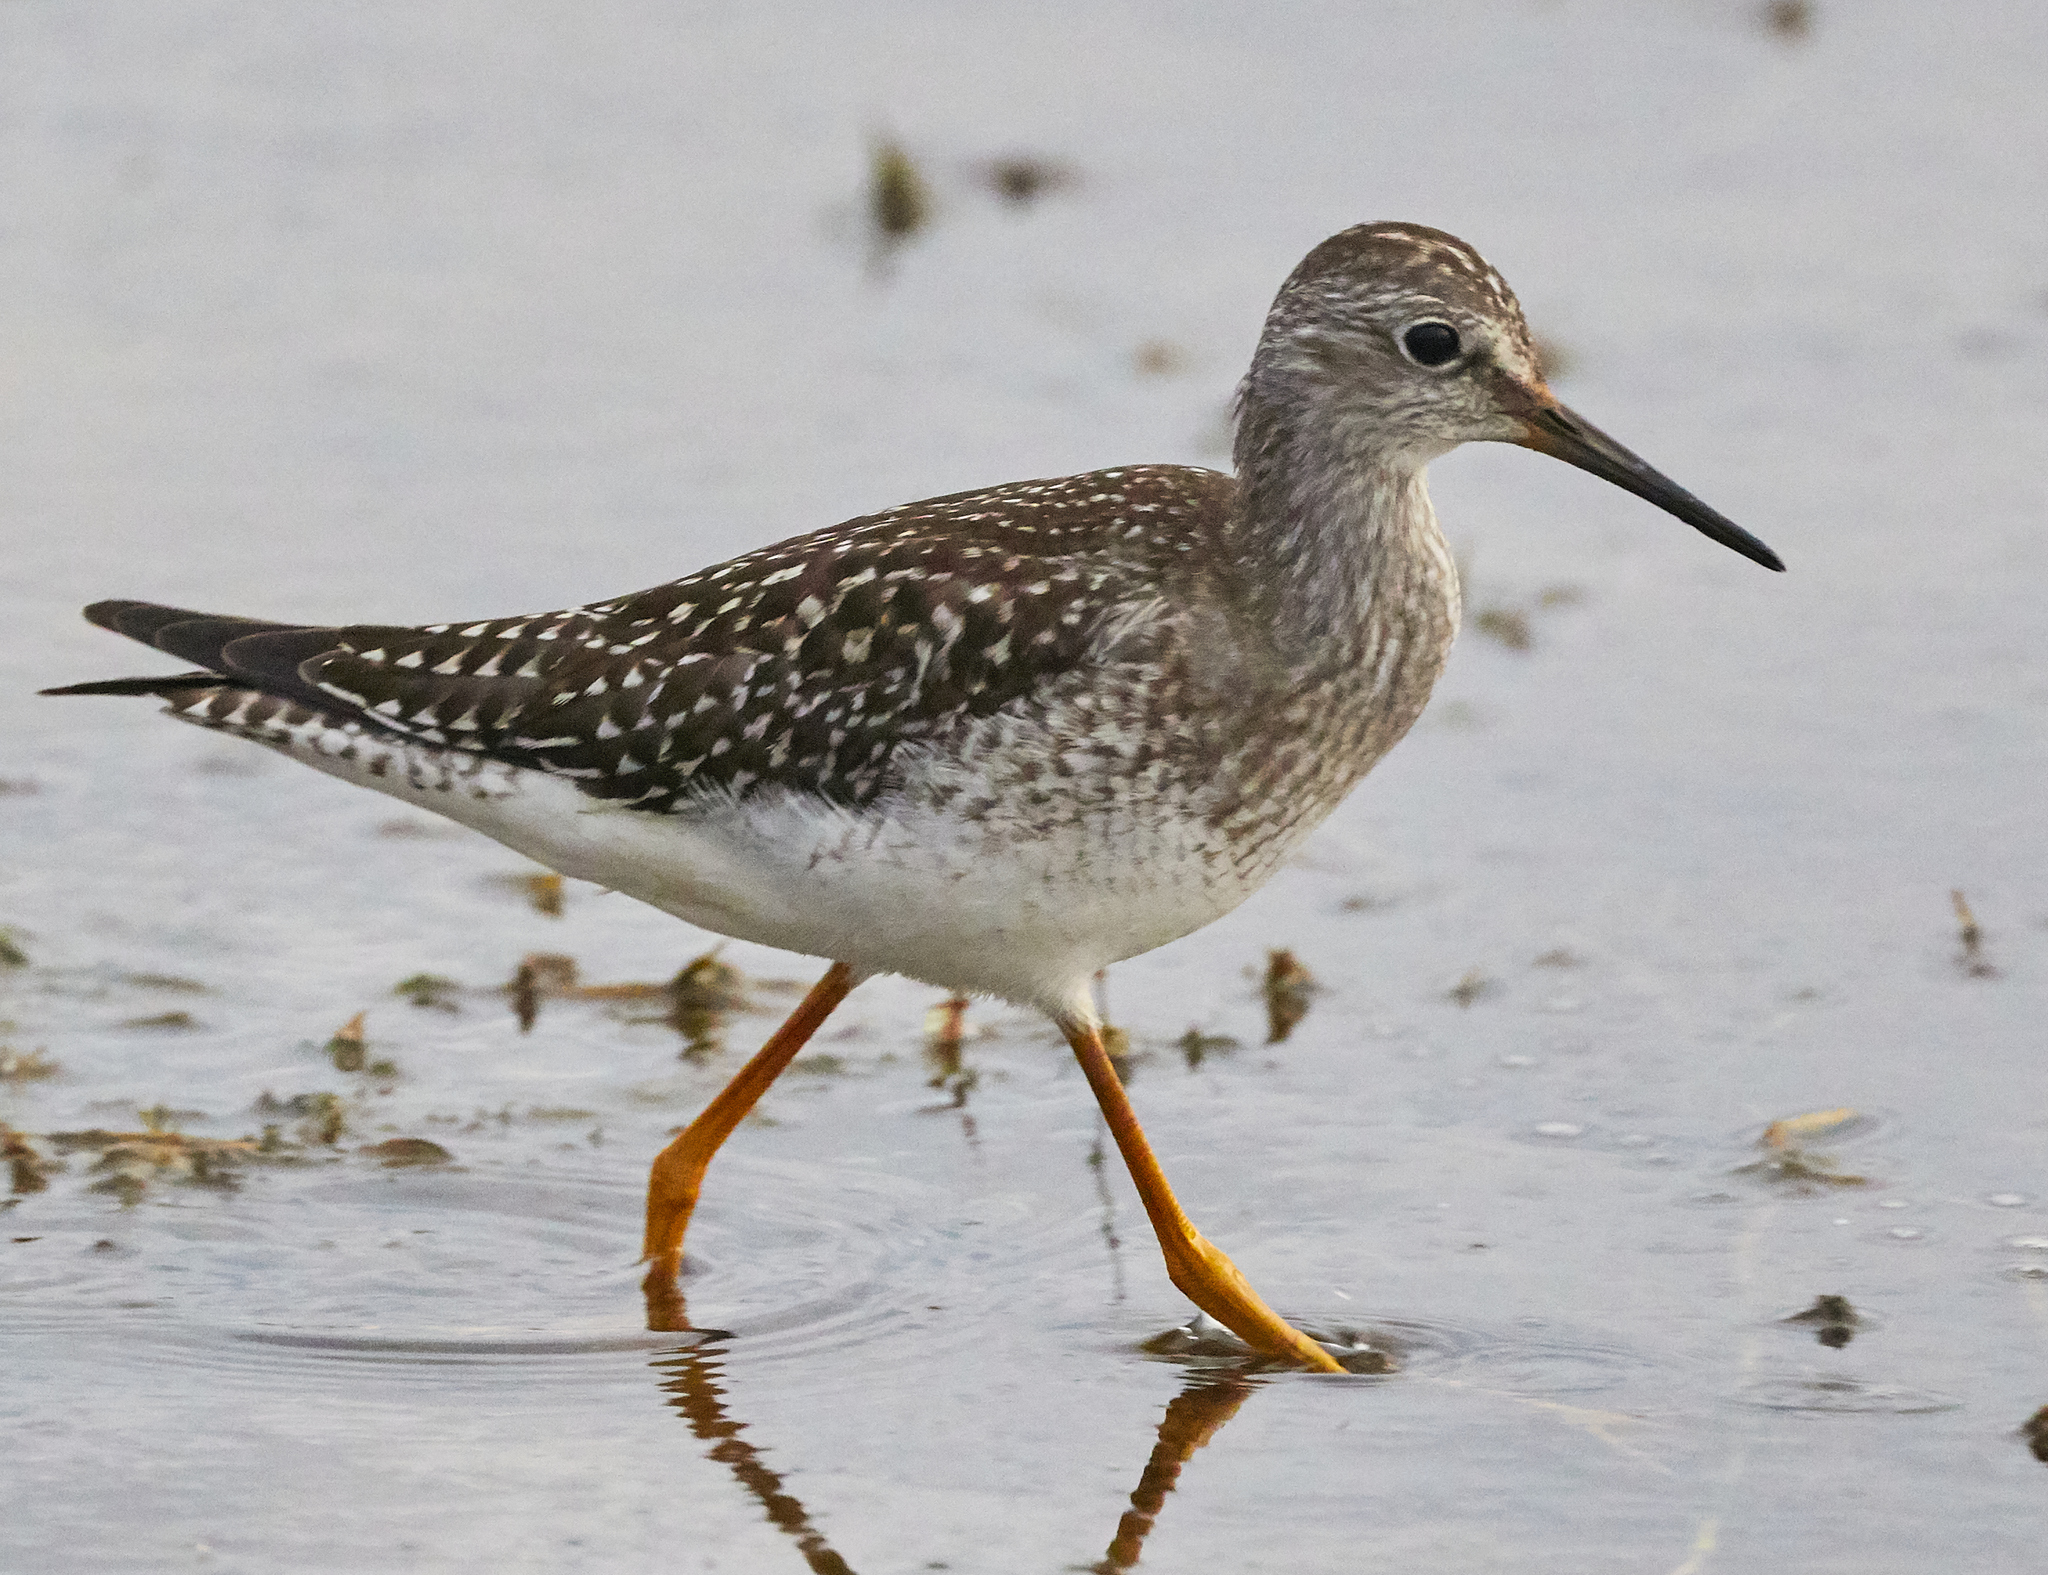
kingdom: Animalia
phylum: Chordata
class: Aves
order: Charadriiformes
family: Scolopacidae
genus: Tringa
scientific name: Tringa flavipes
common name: Lesser yellowlegs
